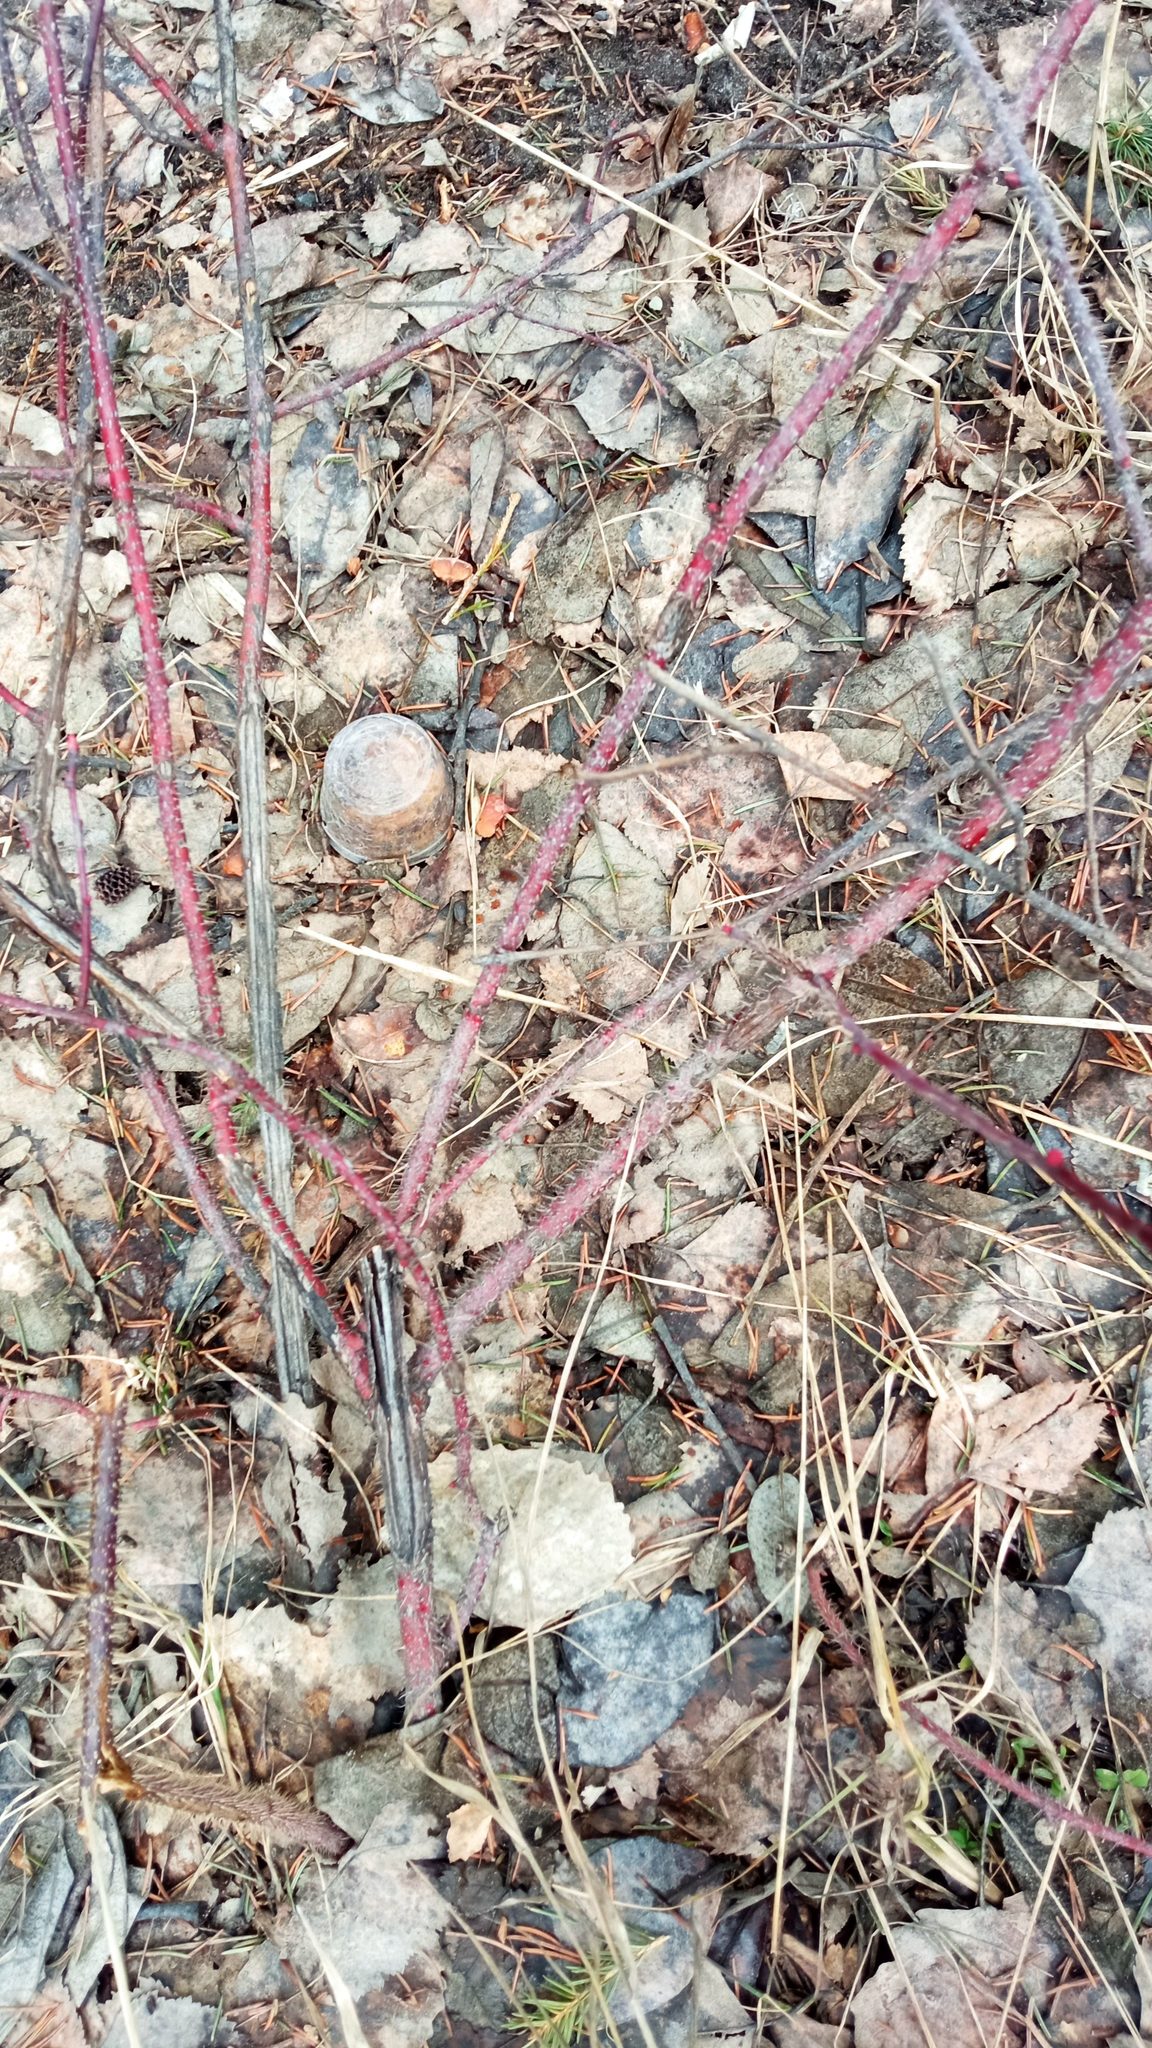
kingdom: Plantae
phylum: Tracheophyta
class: Magnoliopsida
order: Rosales
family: Rosaceae
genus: Rosa
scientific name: Rosa acicularis
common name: Prickly rose
